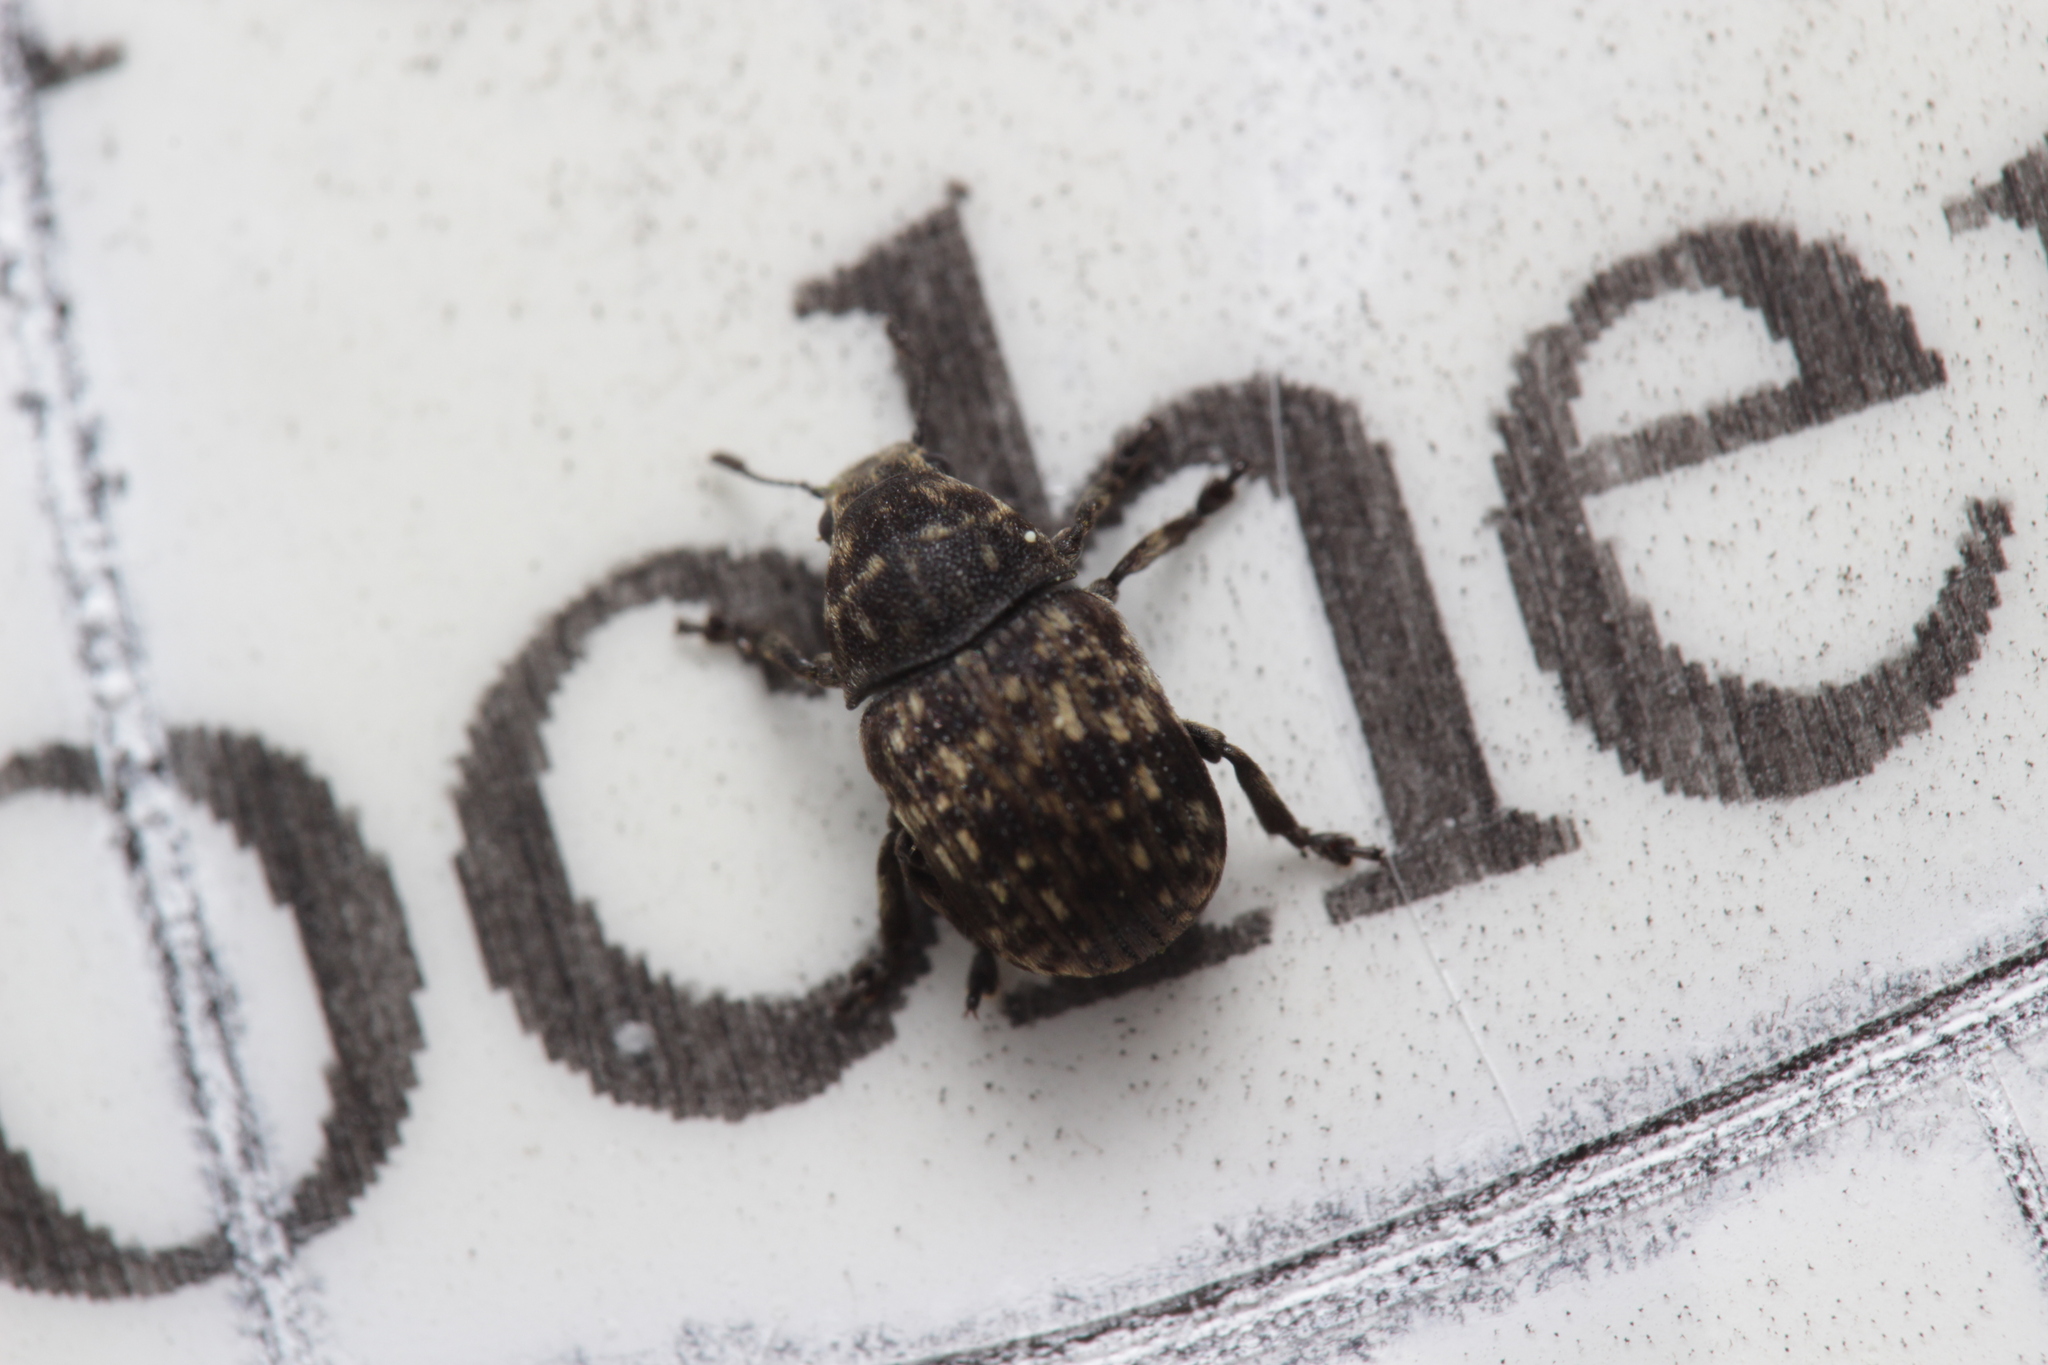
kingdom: Animalia
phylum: Arthropoda
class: Insecta
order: Coleoptera
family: Anthribidae
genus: Anthribus
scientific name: Anthribus nebulosus
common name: Fungus weevil
